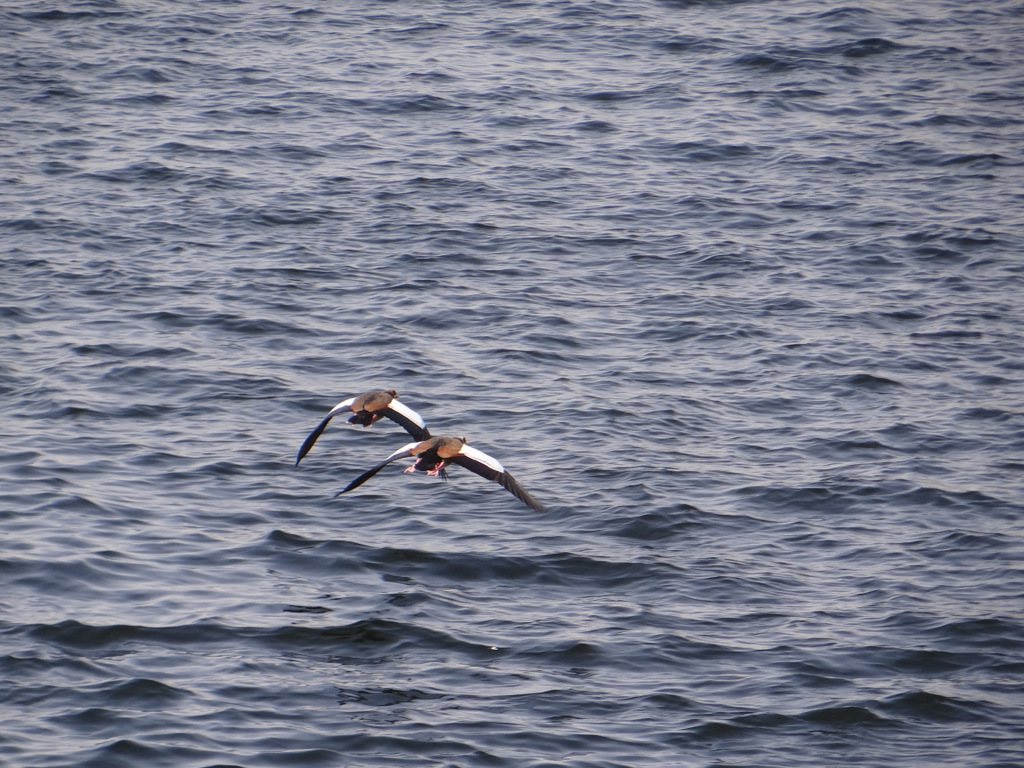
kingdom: Animalia
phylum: Chordata
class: Aves
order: Anseriformes
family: Anatidae
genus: Alopochen
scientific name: Alopochen aegyptiaca
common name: Egyptian goose
